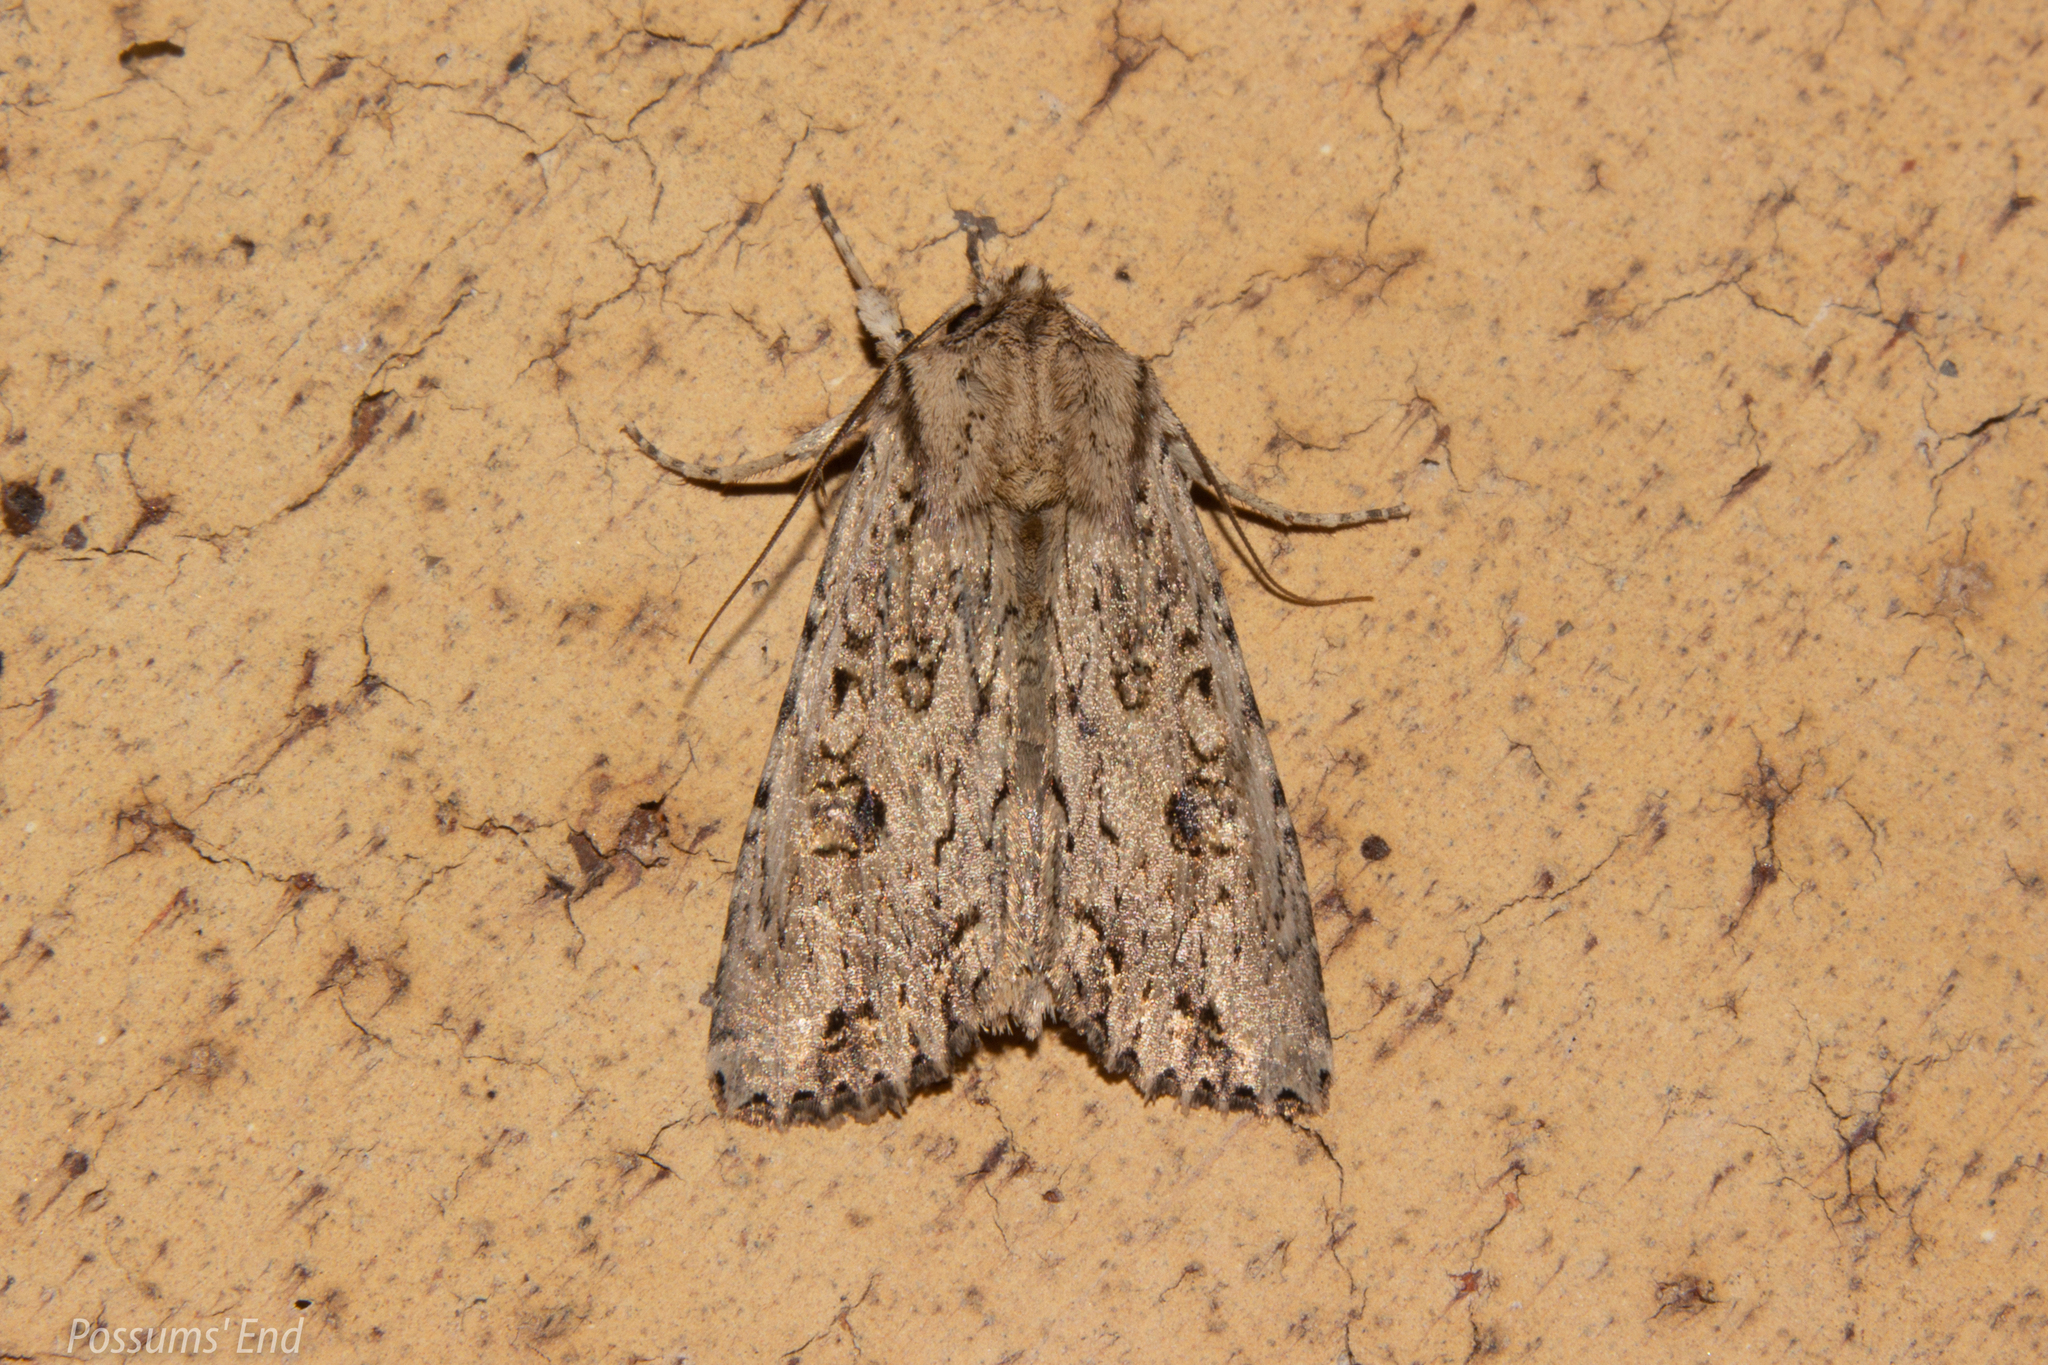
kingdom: Animalia
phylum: Arthropoda
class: Insecta
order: Lepidoptera
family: Noctuidae
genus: Ichneutica
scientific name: Ichneutica lignana
